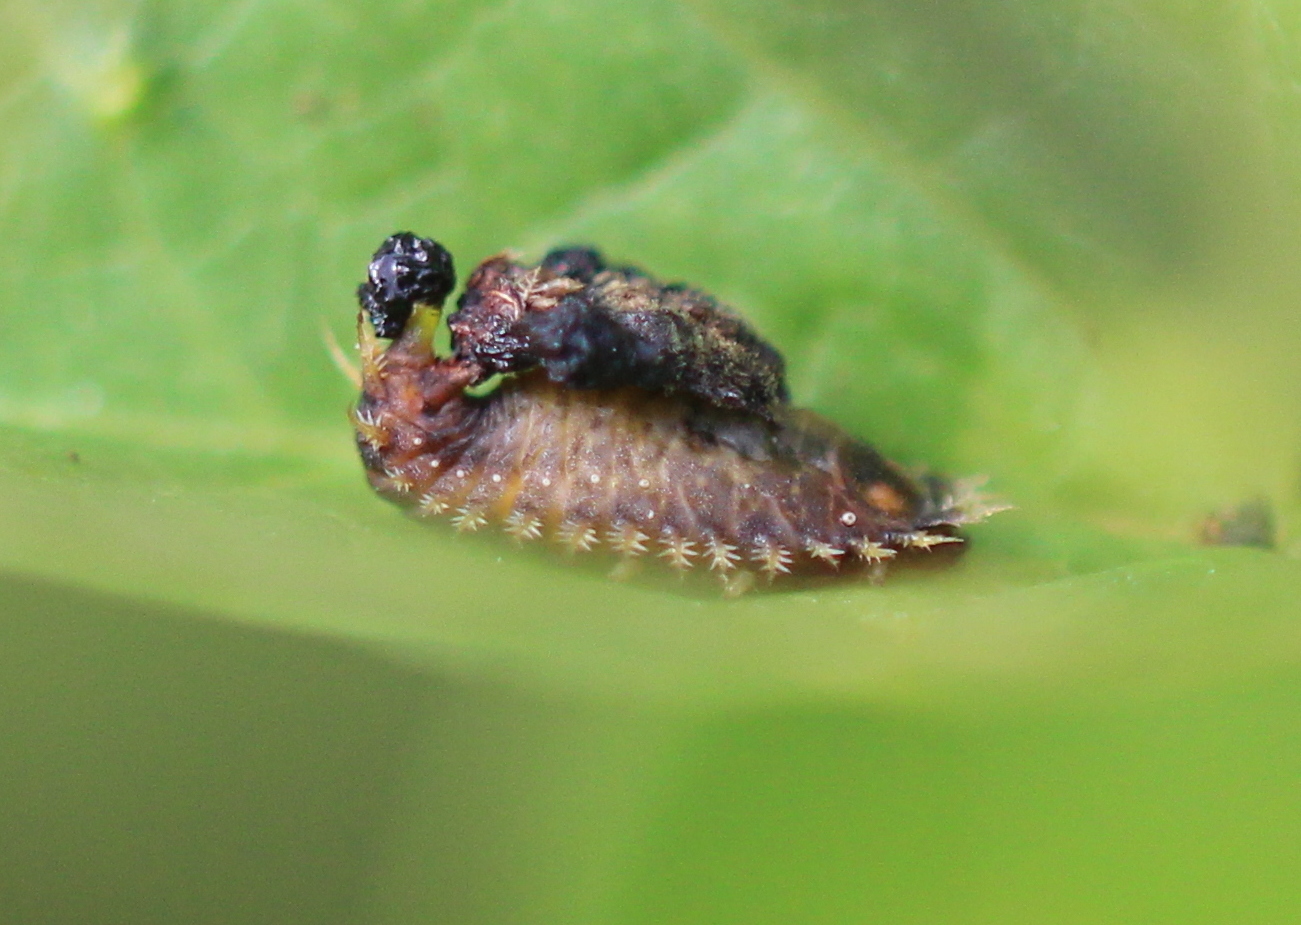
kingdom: Animalia
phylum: Arthropoda
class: Insecta
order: Coleoptera
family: Chrysomelidae
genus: Charidotella
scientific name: Charidotella sexpunctata
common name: Golden tortoise beetle
